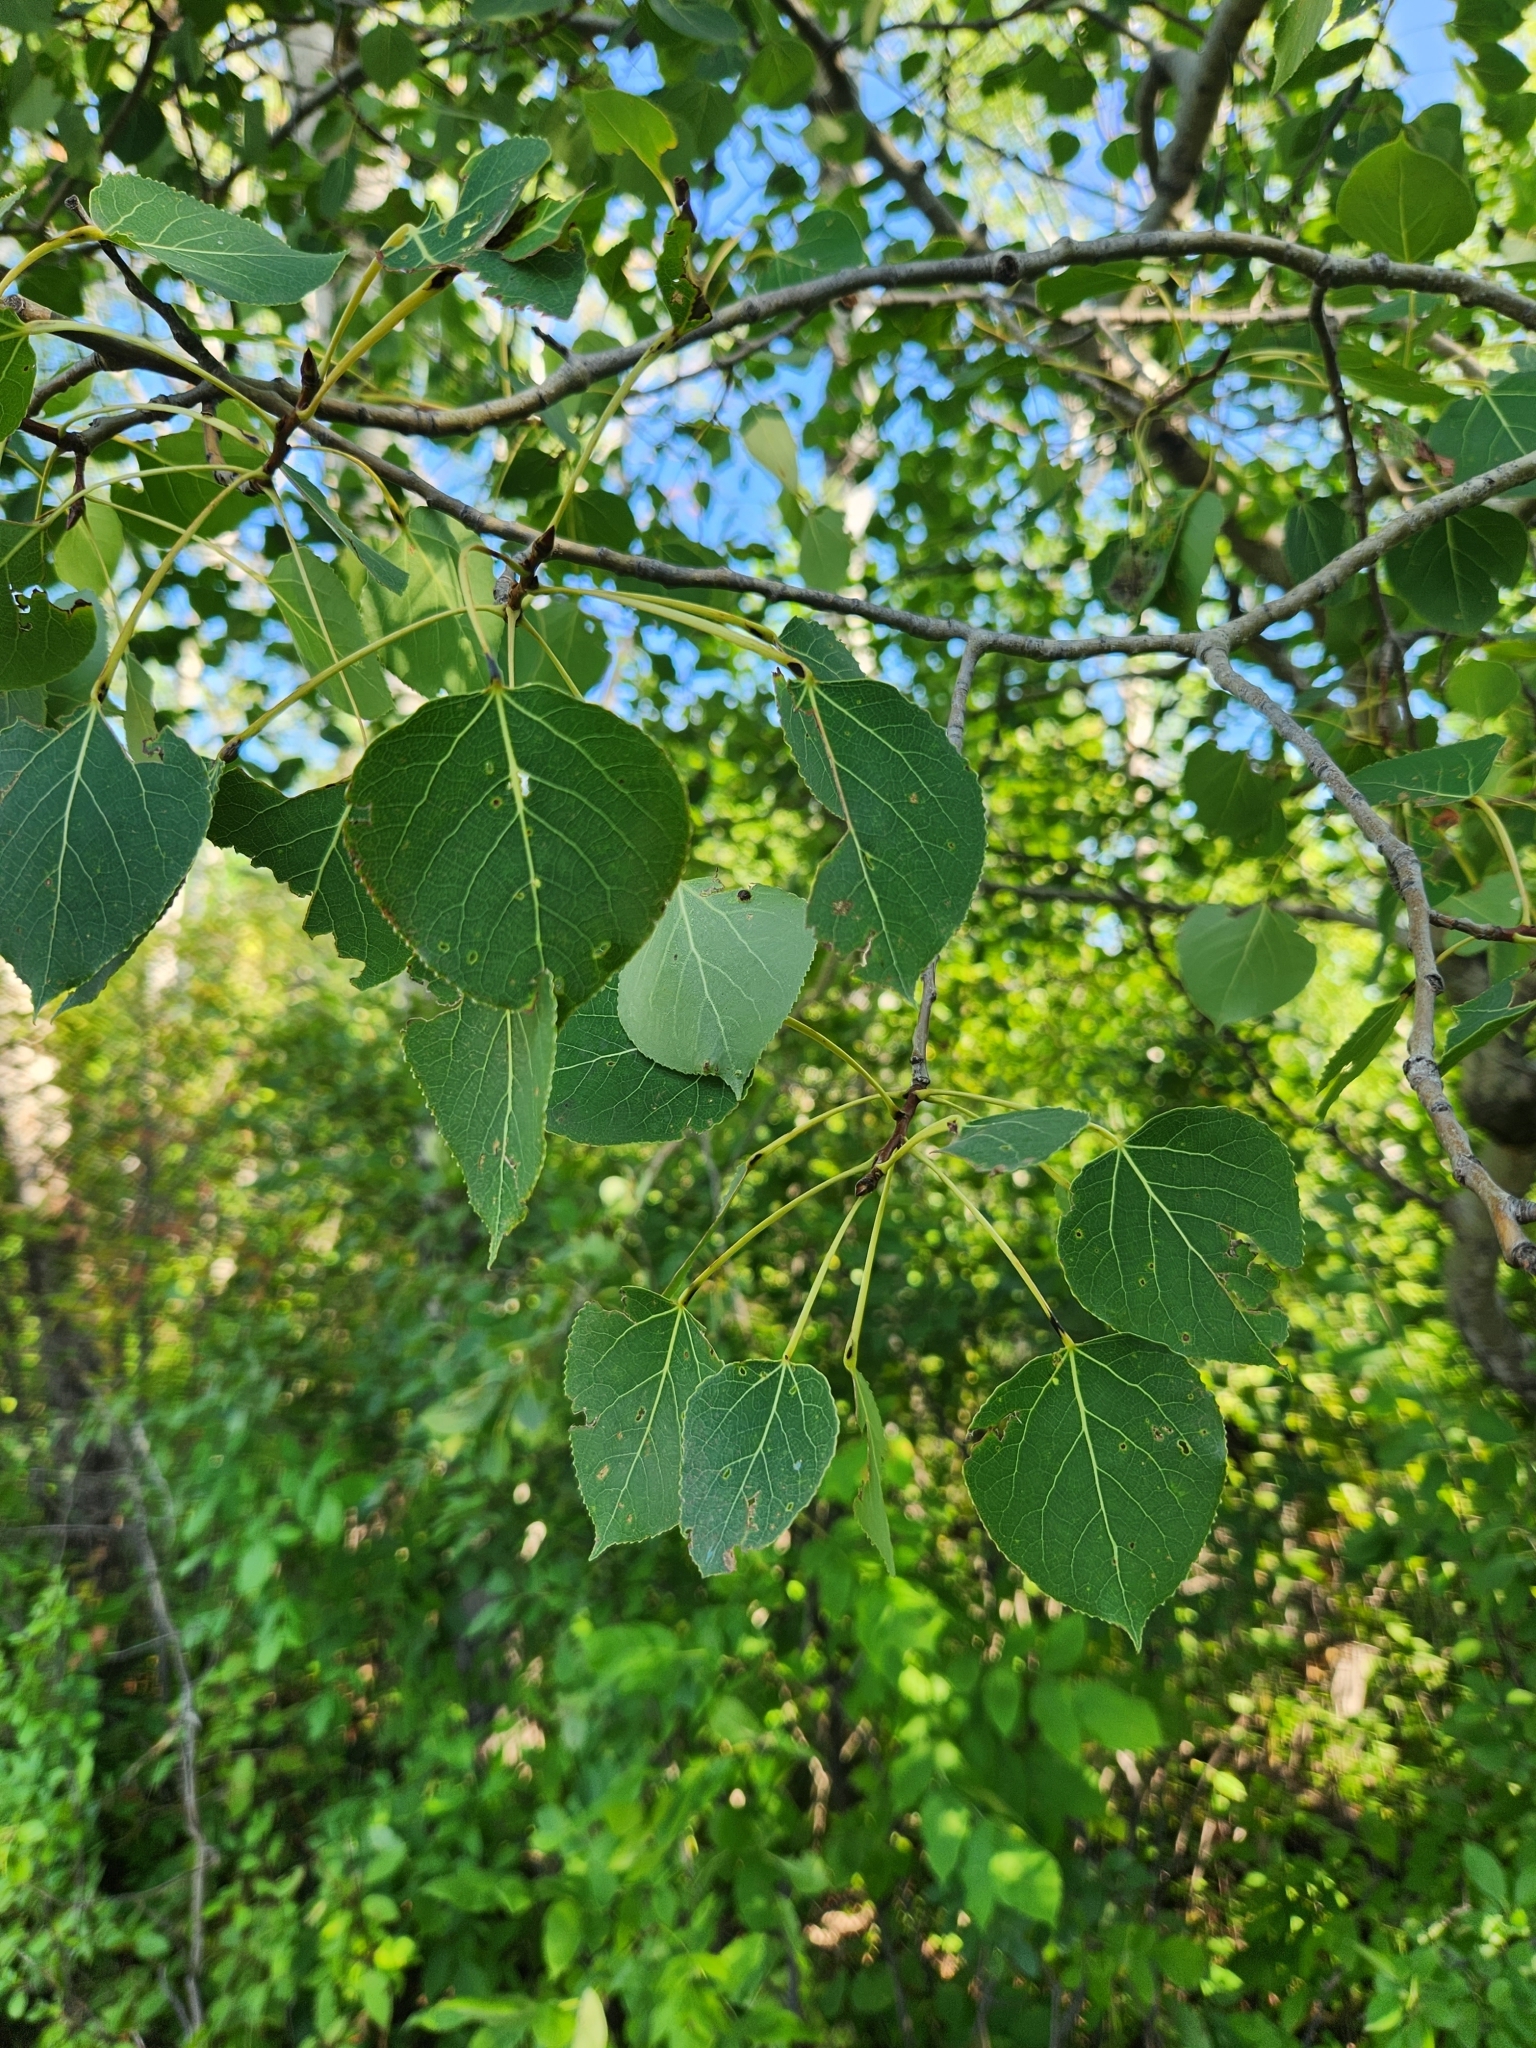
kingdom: Plantae
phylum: Tracheophyta
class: Magnoliopsida
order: Malpighiales
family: Salicaceae
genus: Populus
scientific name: Populus tremuloides
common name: Quaking aspen
